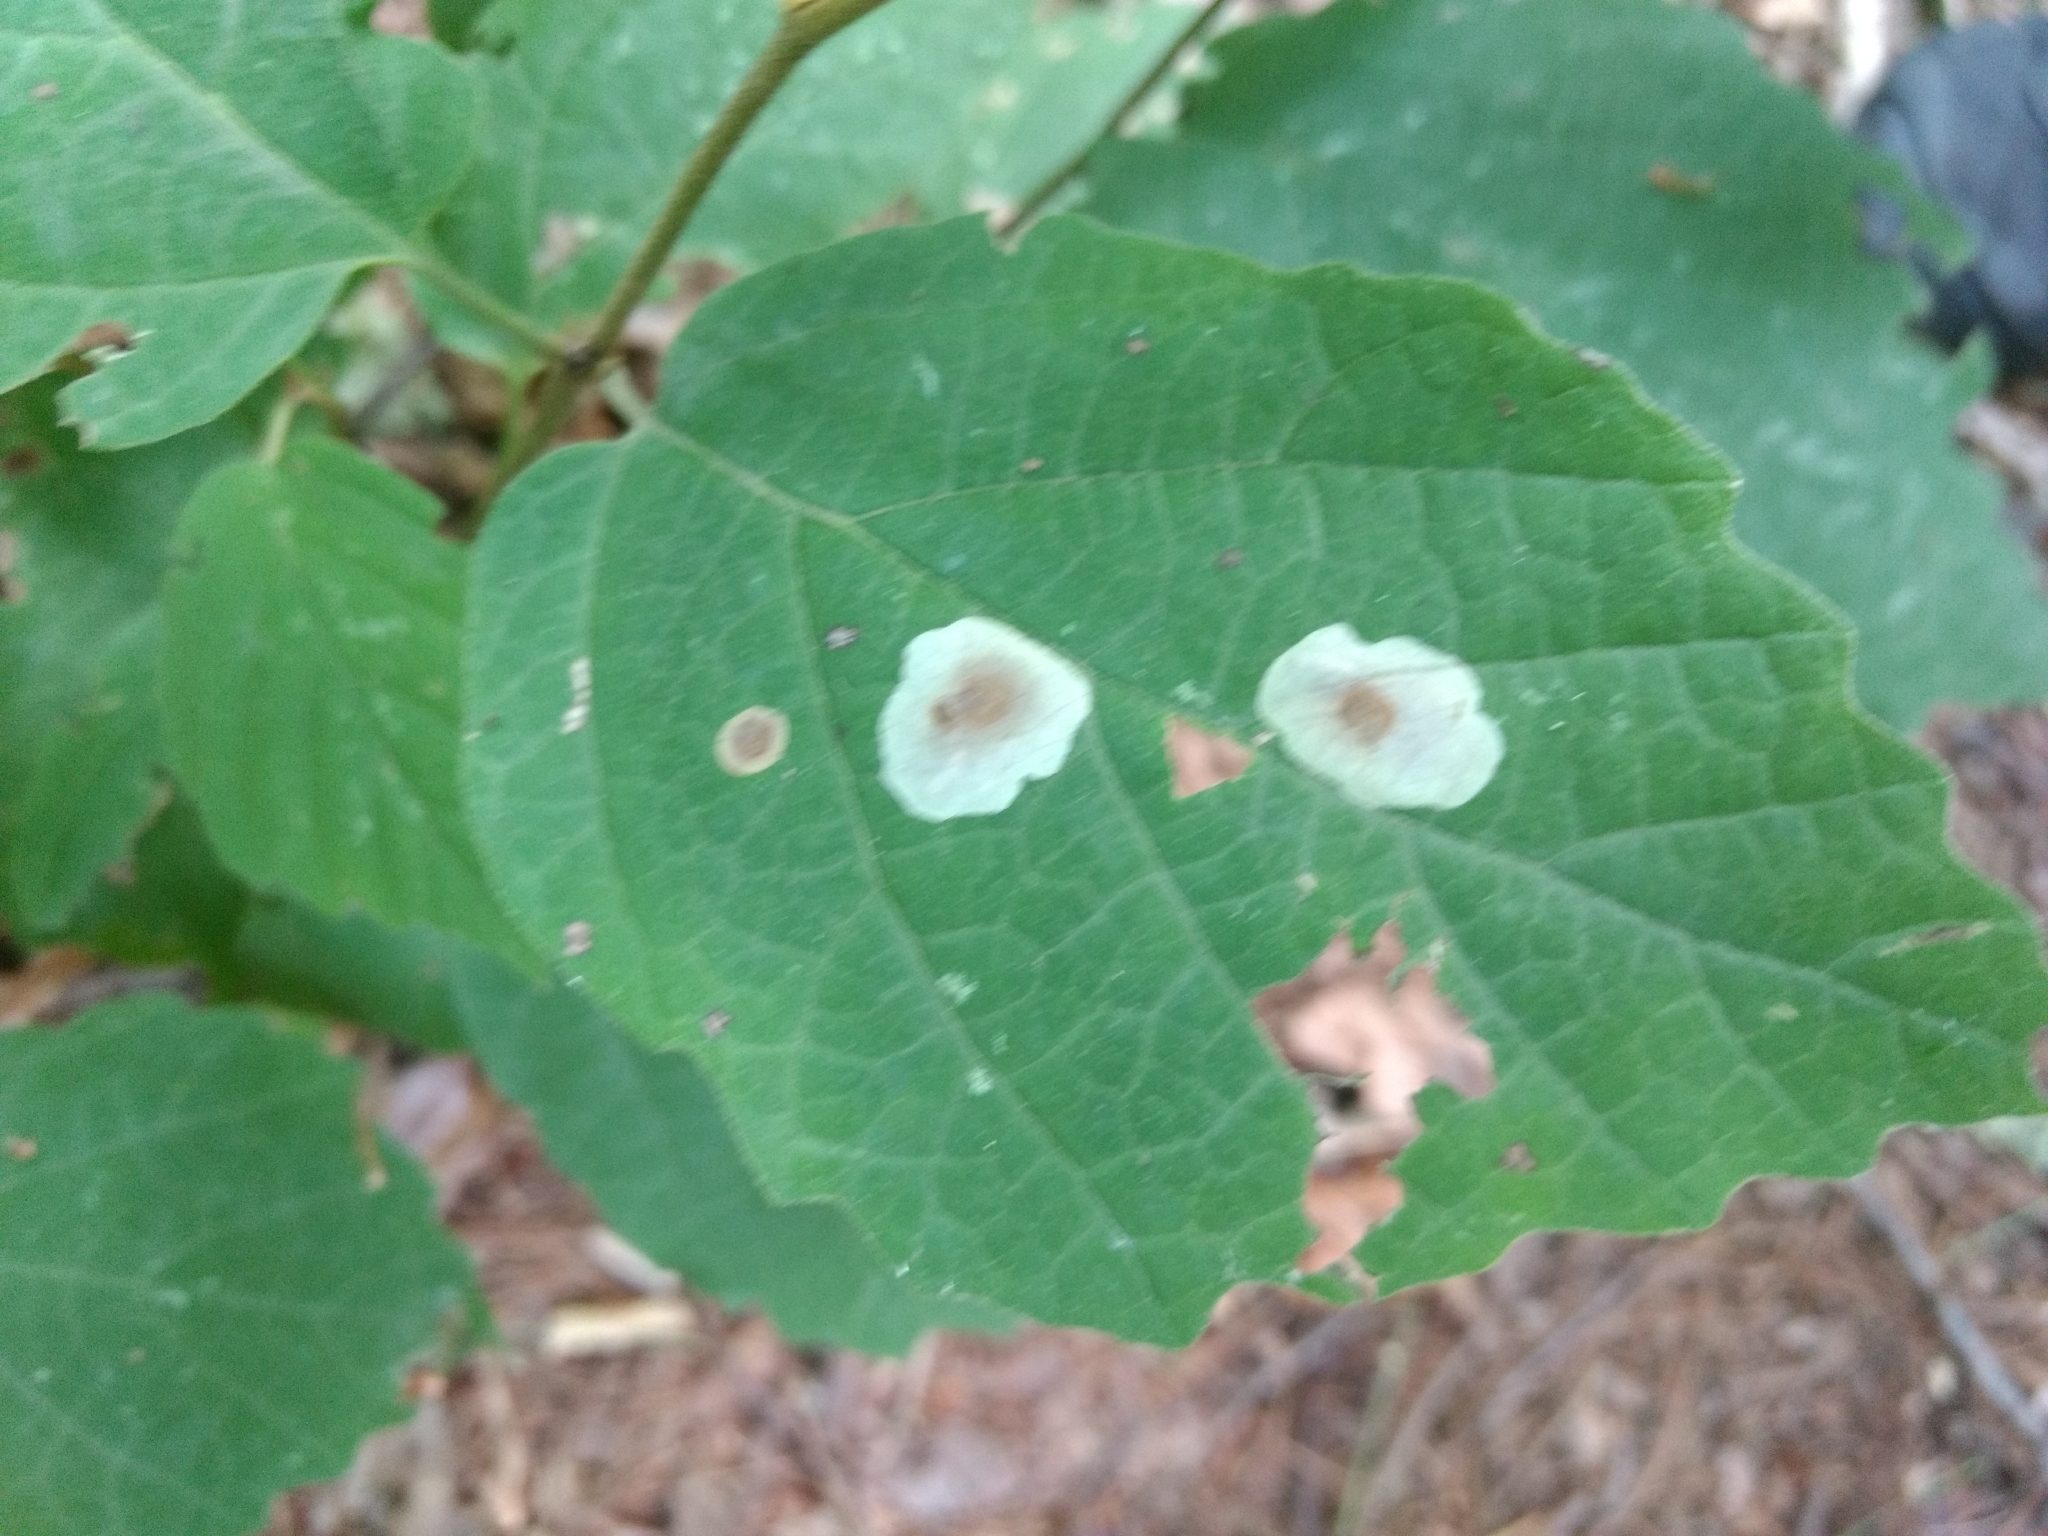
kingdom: Plantae
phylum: Tracheophyta
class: Magnoliopsida
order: Saxifragales
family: Hamamelidaceae
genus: Hamamelis
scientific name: Hamamelis virginiana
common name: Witch-hazel
